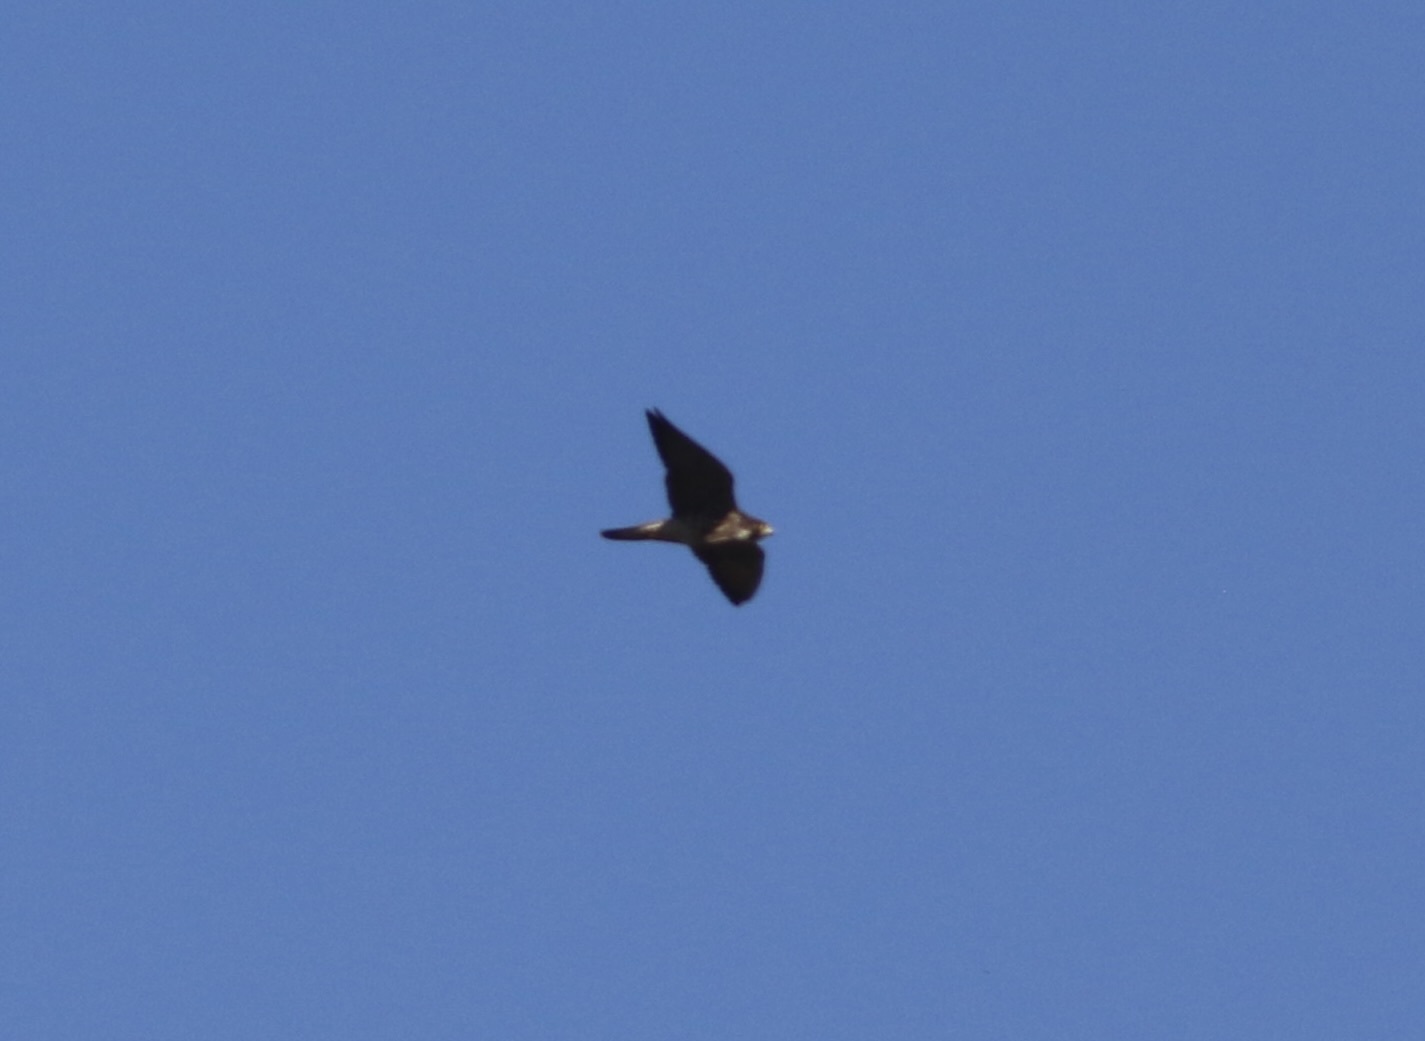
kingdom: Animalia
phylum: Chordata
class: Aves
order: Falconiformes
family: Falconidae
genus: Falco
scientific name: Falco peregrinus
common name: Peregrine falcon
